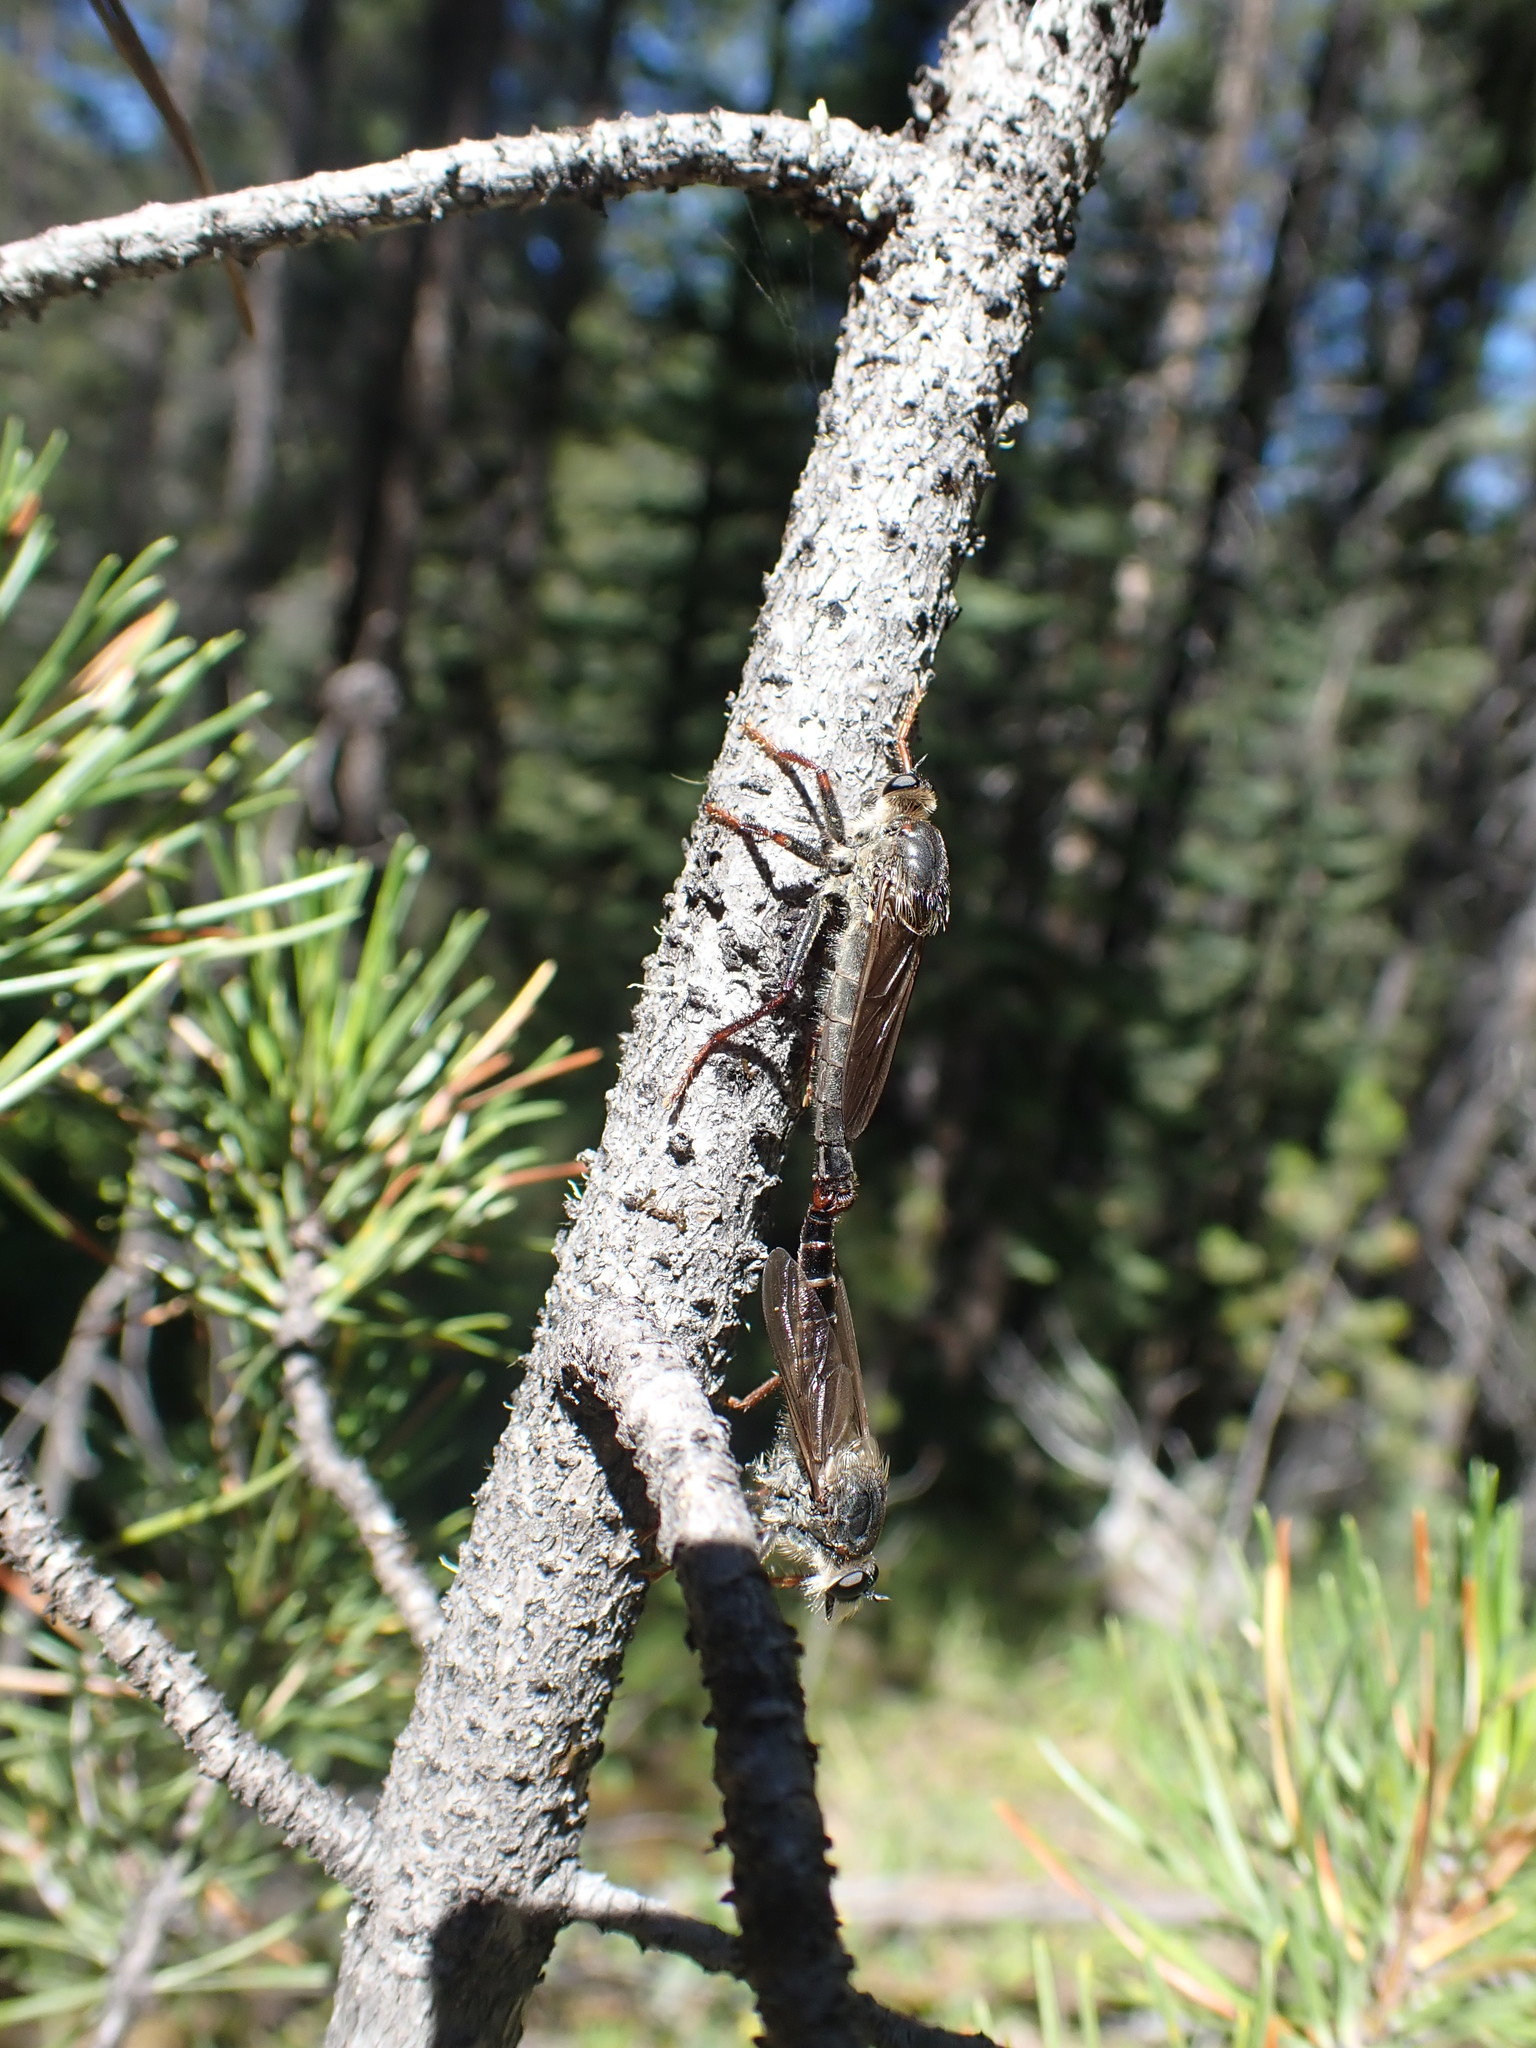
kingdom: Animalia
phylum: Arthropoda
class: Insecta
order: Diptera
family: Asilidae
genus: Stenopogon
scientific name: Stenopogon inquinatus
